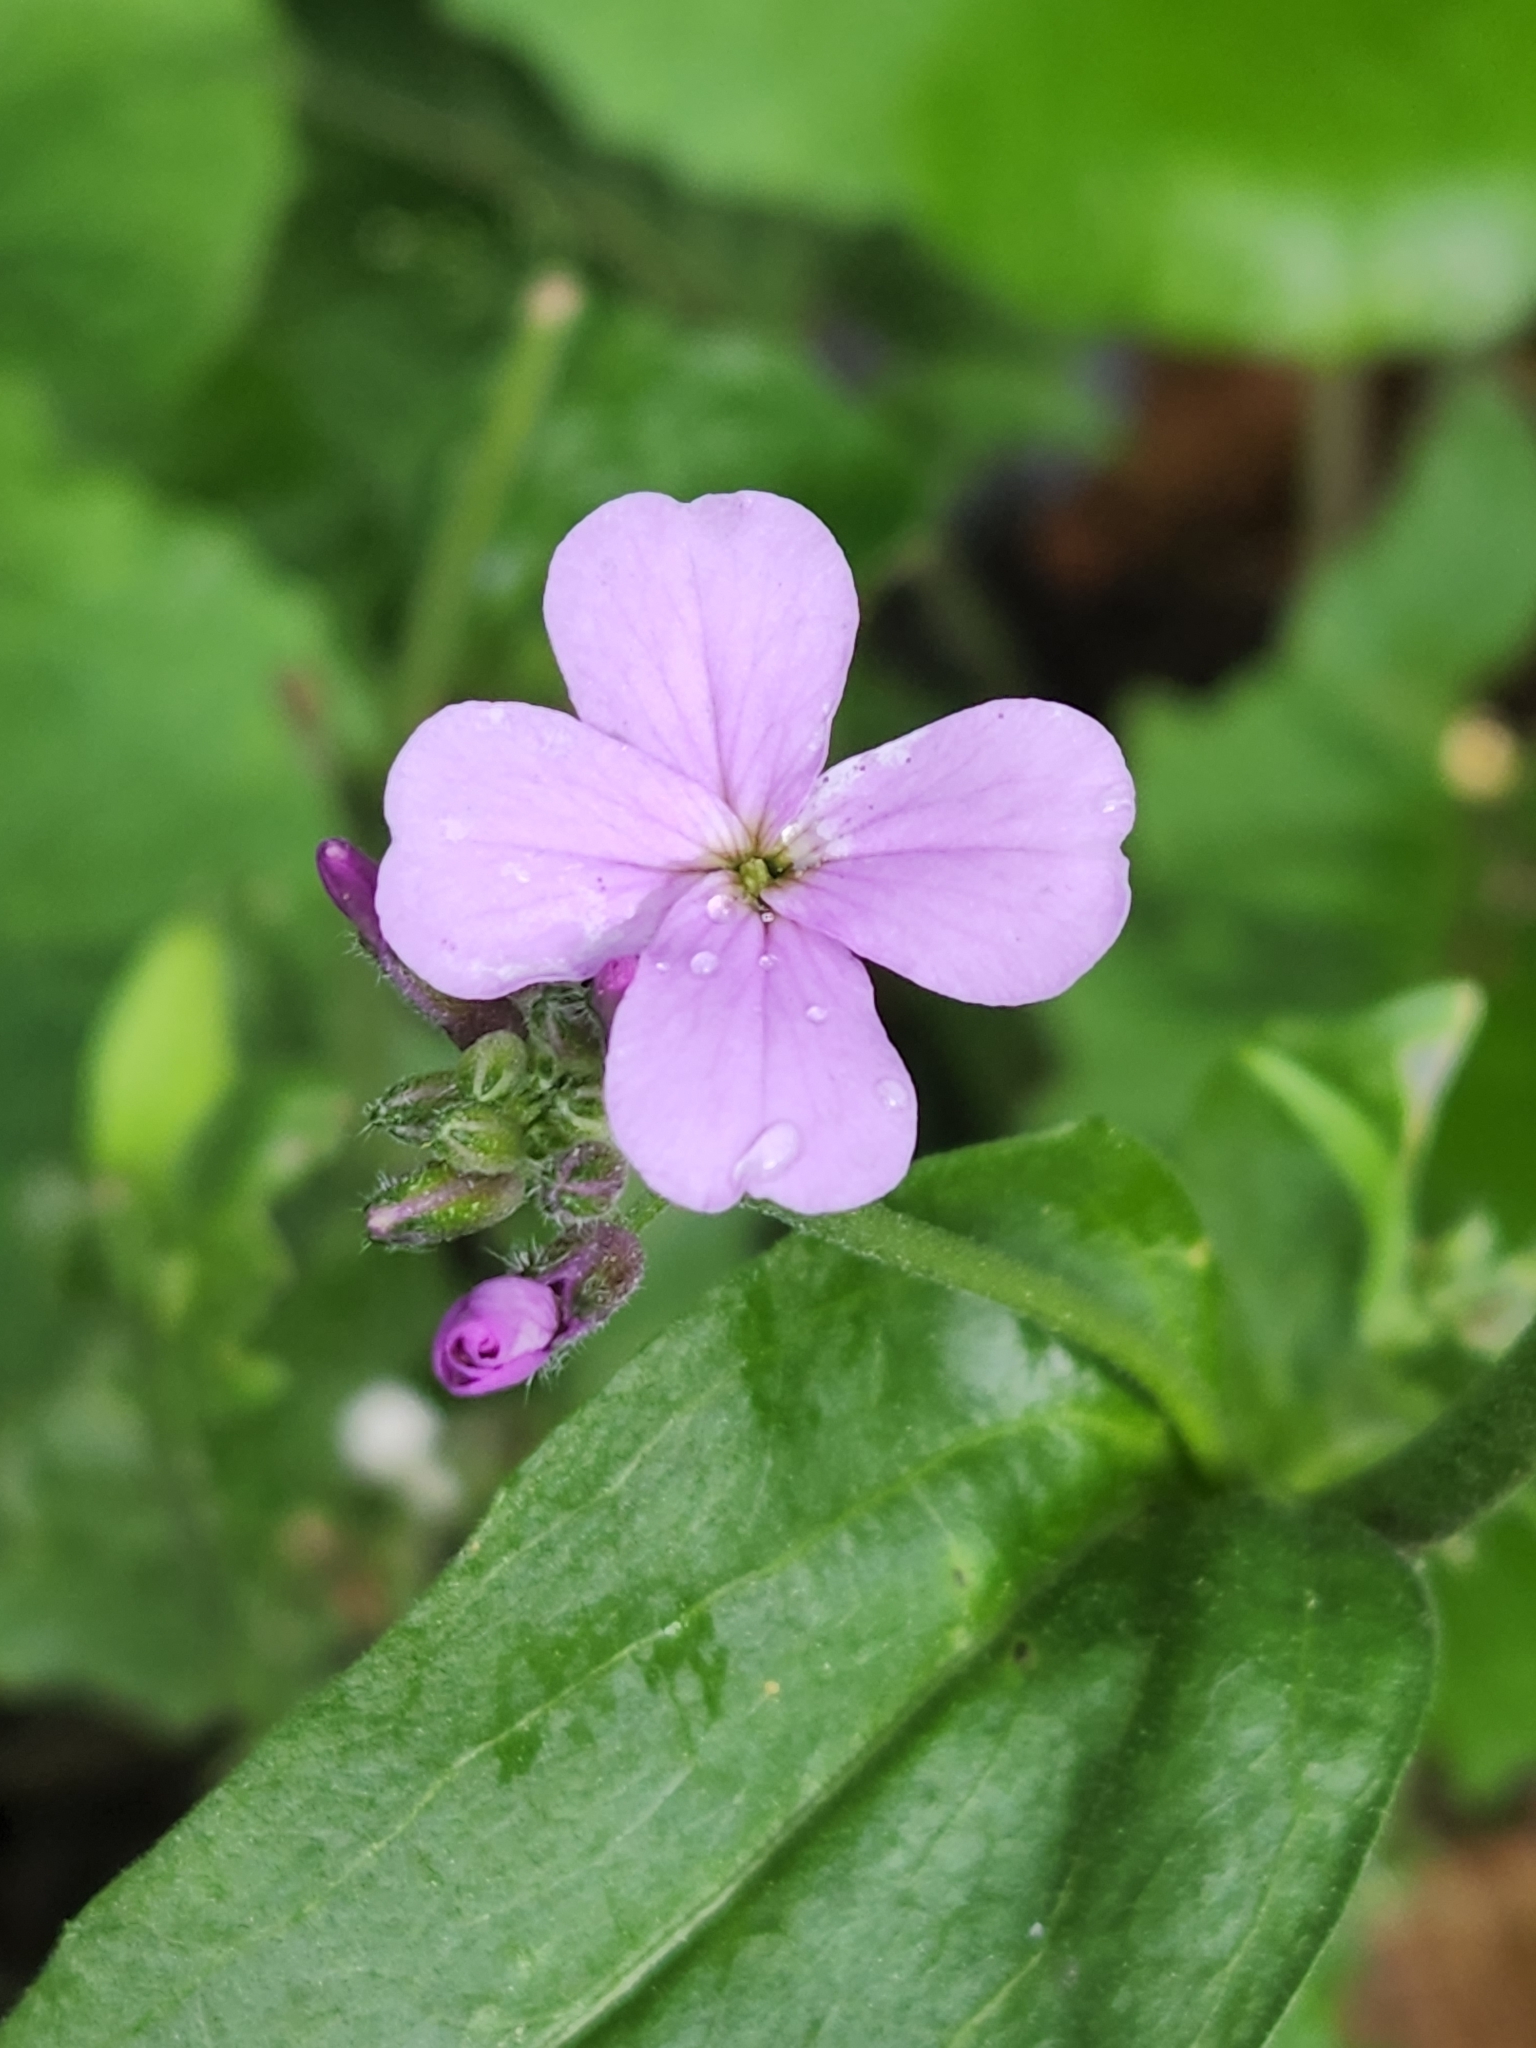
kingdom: Plantae
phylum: Tracheophyta
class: Magnoliopsida
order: Brassicales
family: Brassicaceae
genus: Hesperis
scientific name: Hesperis matronalis
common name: Dame's-violet
